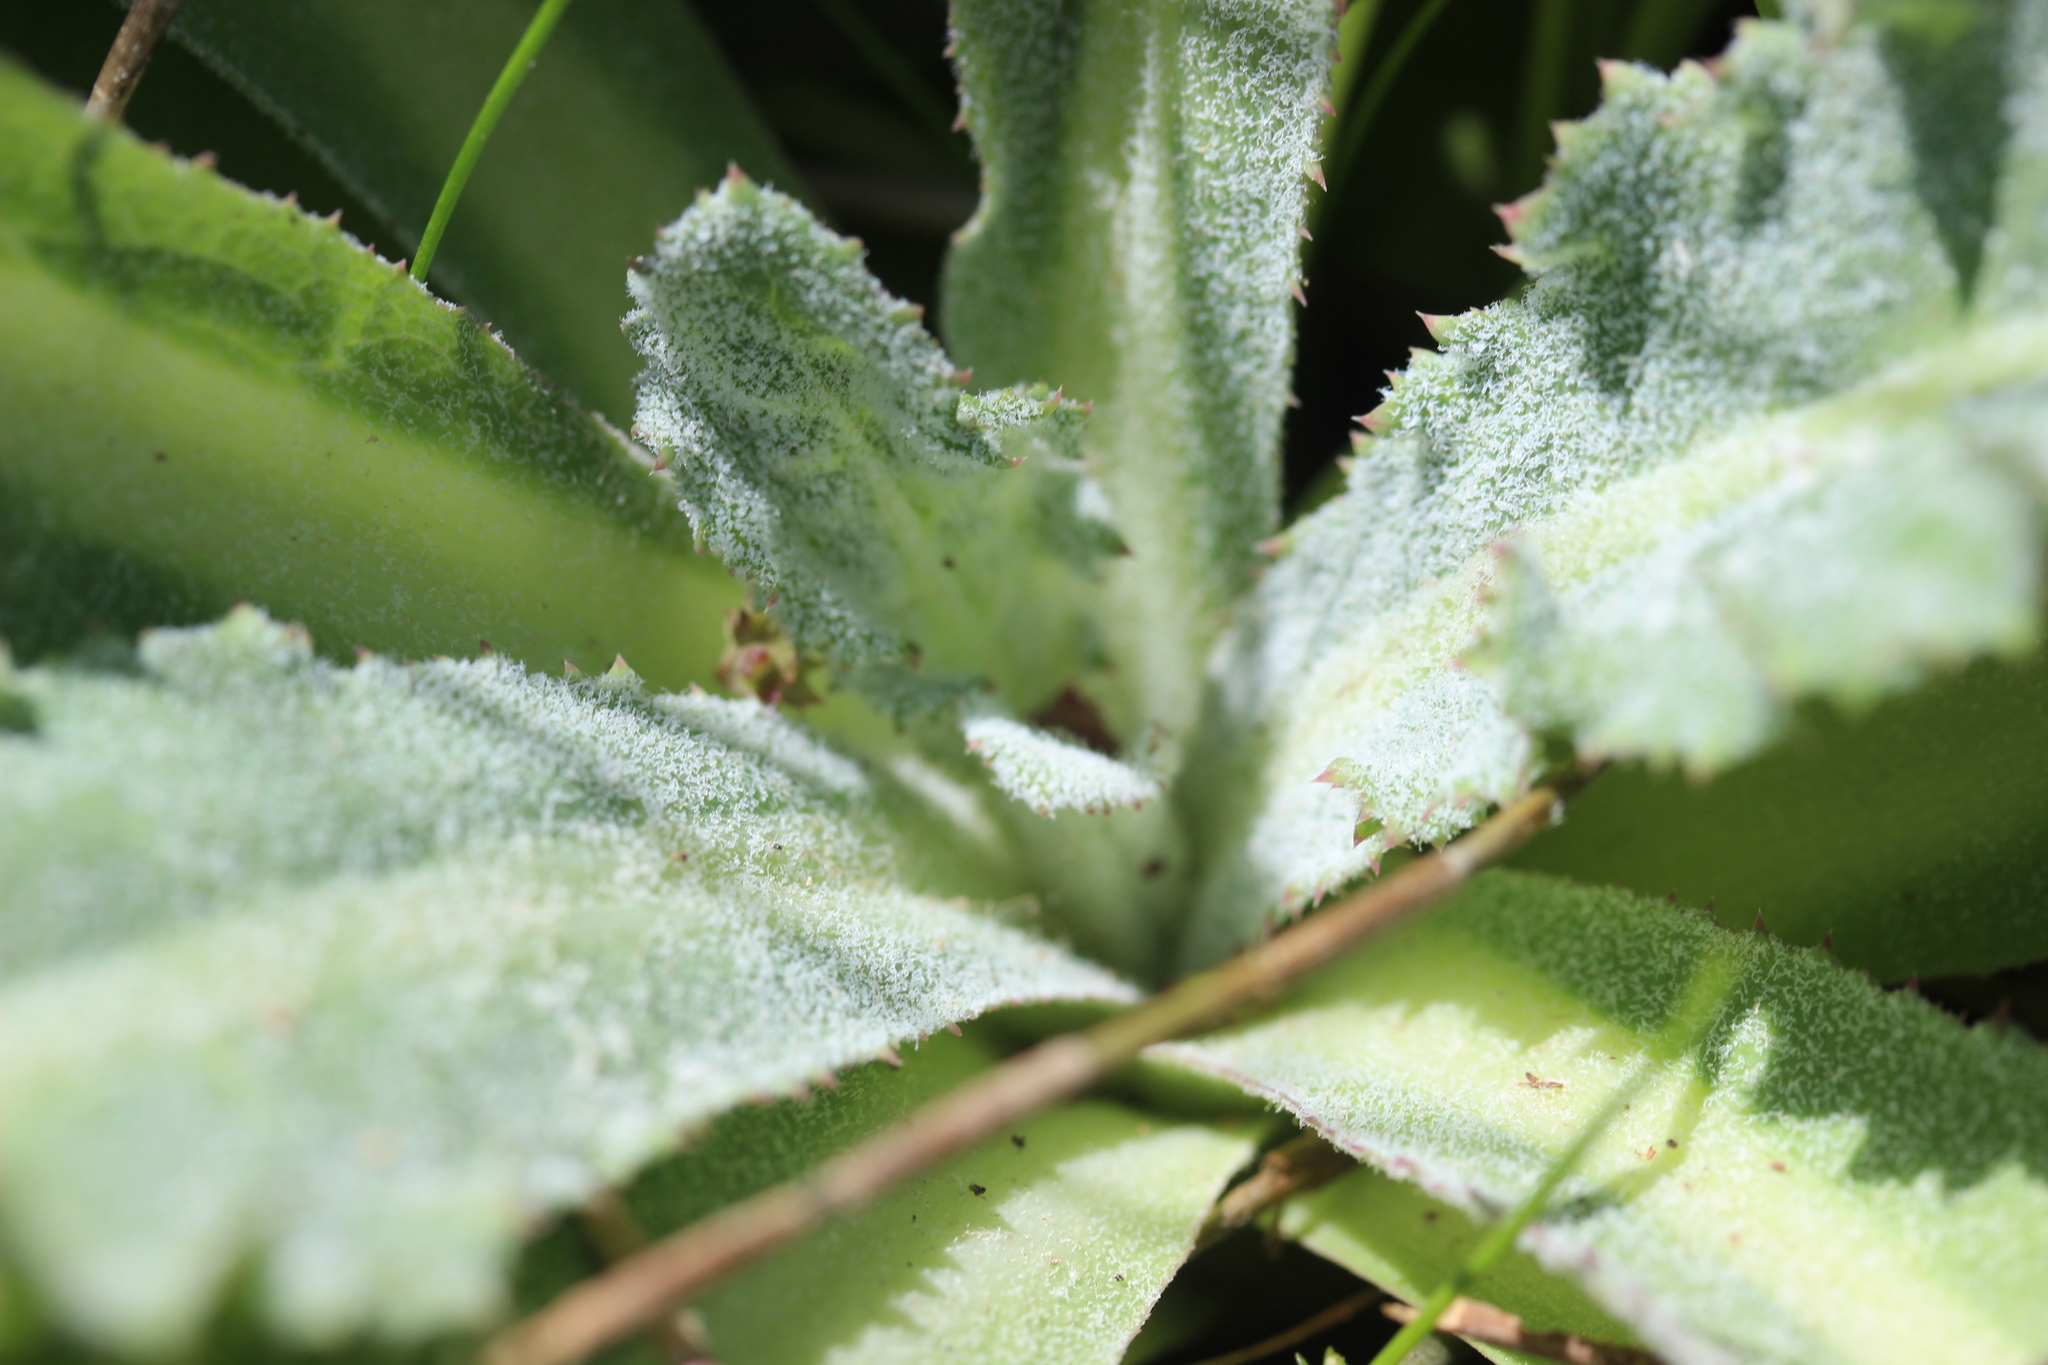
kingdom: Plantae
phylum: Tracheophyta
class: Magnoliopsida
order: Asterales
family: Asteraceae
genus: Sonchus
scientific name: Sonchus kirkii
